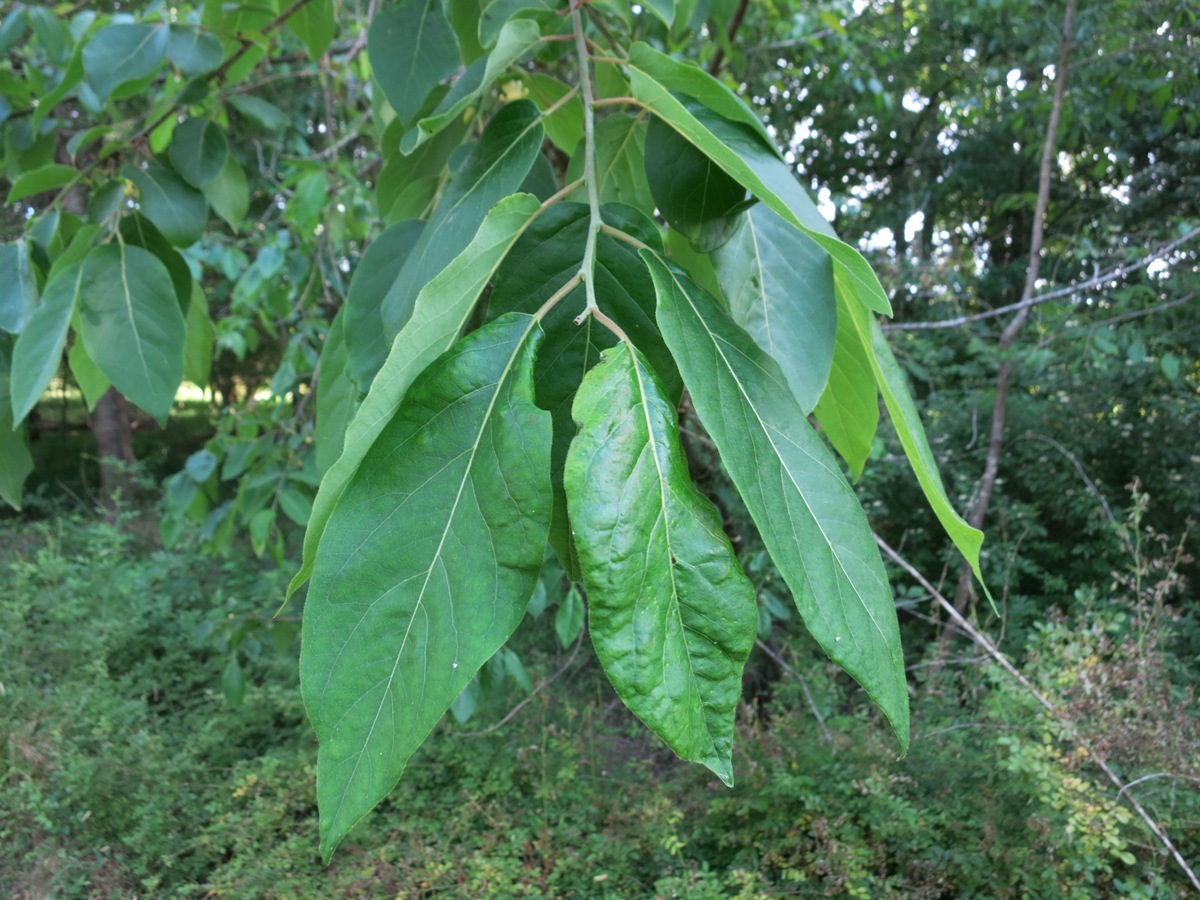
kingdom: Plantae
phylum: Tracheophyta
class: Magnoliopsida
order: Ericales
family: Ebenaceae
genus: Diospyros
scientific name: Diospyros virginiana
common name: Persimmon
